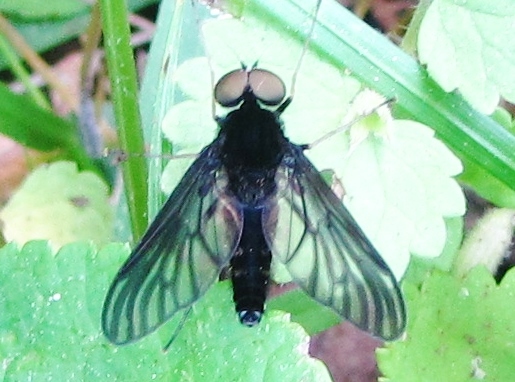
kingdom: Animalia
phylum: Arthropoda
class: Insecta
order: Diptera
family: Rhagionidae
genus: Chrysopilus
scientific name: Chrysopilus velutinus
